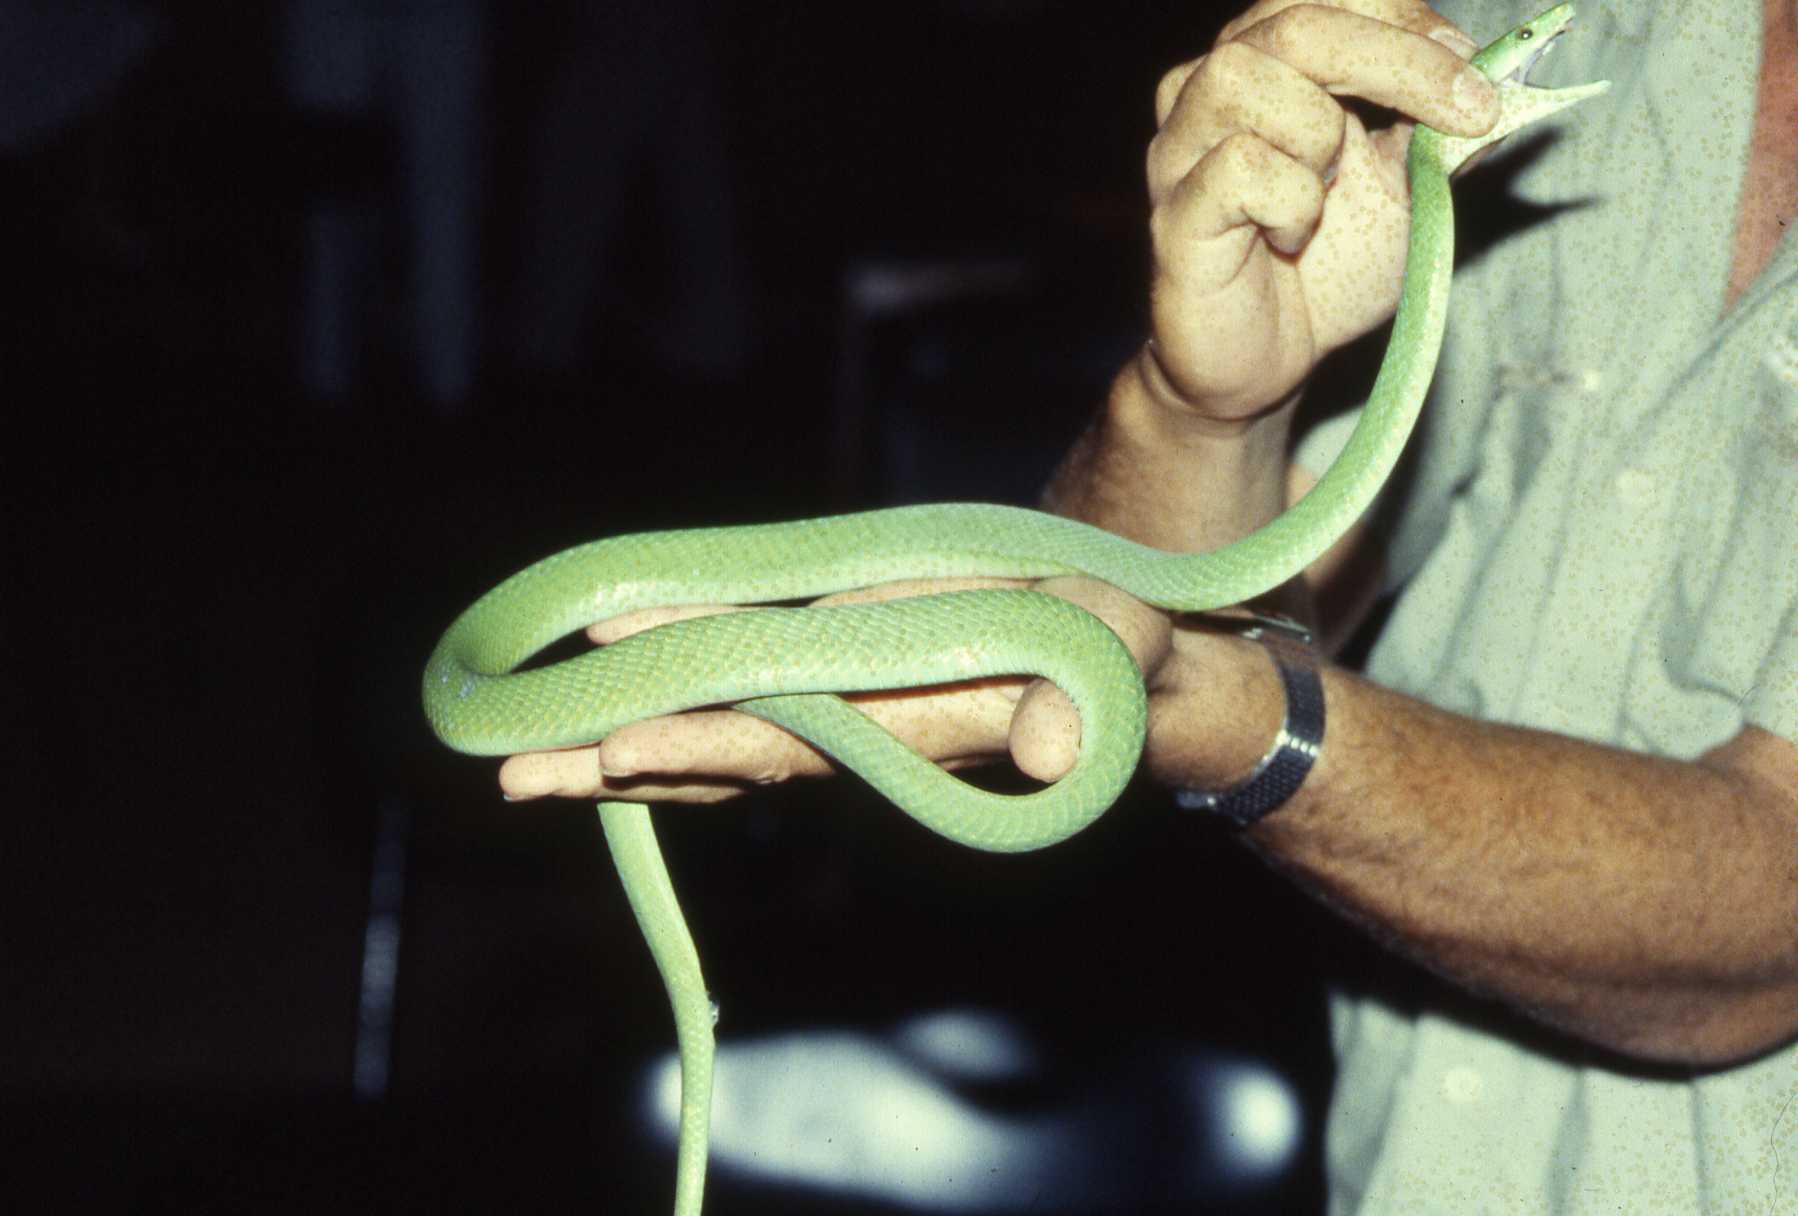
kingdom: Animalia
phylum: Chordata
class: Squamata
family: Elapidae
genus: Dendroaspis
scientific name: Dendroaspis angusticeps
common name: Green mamba
